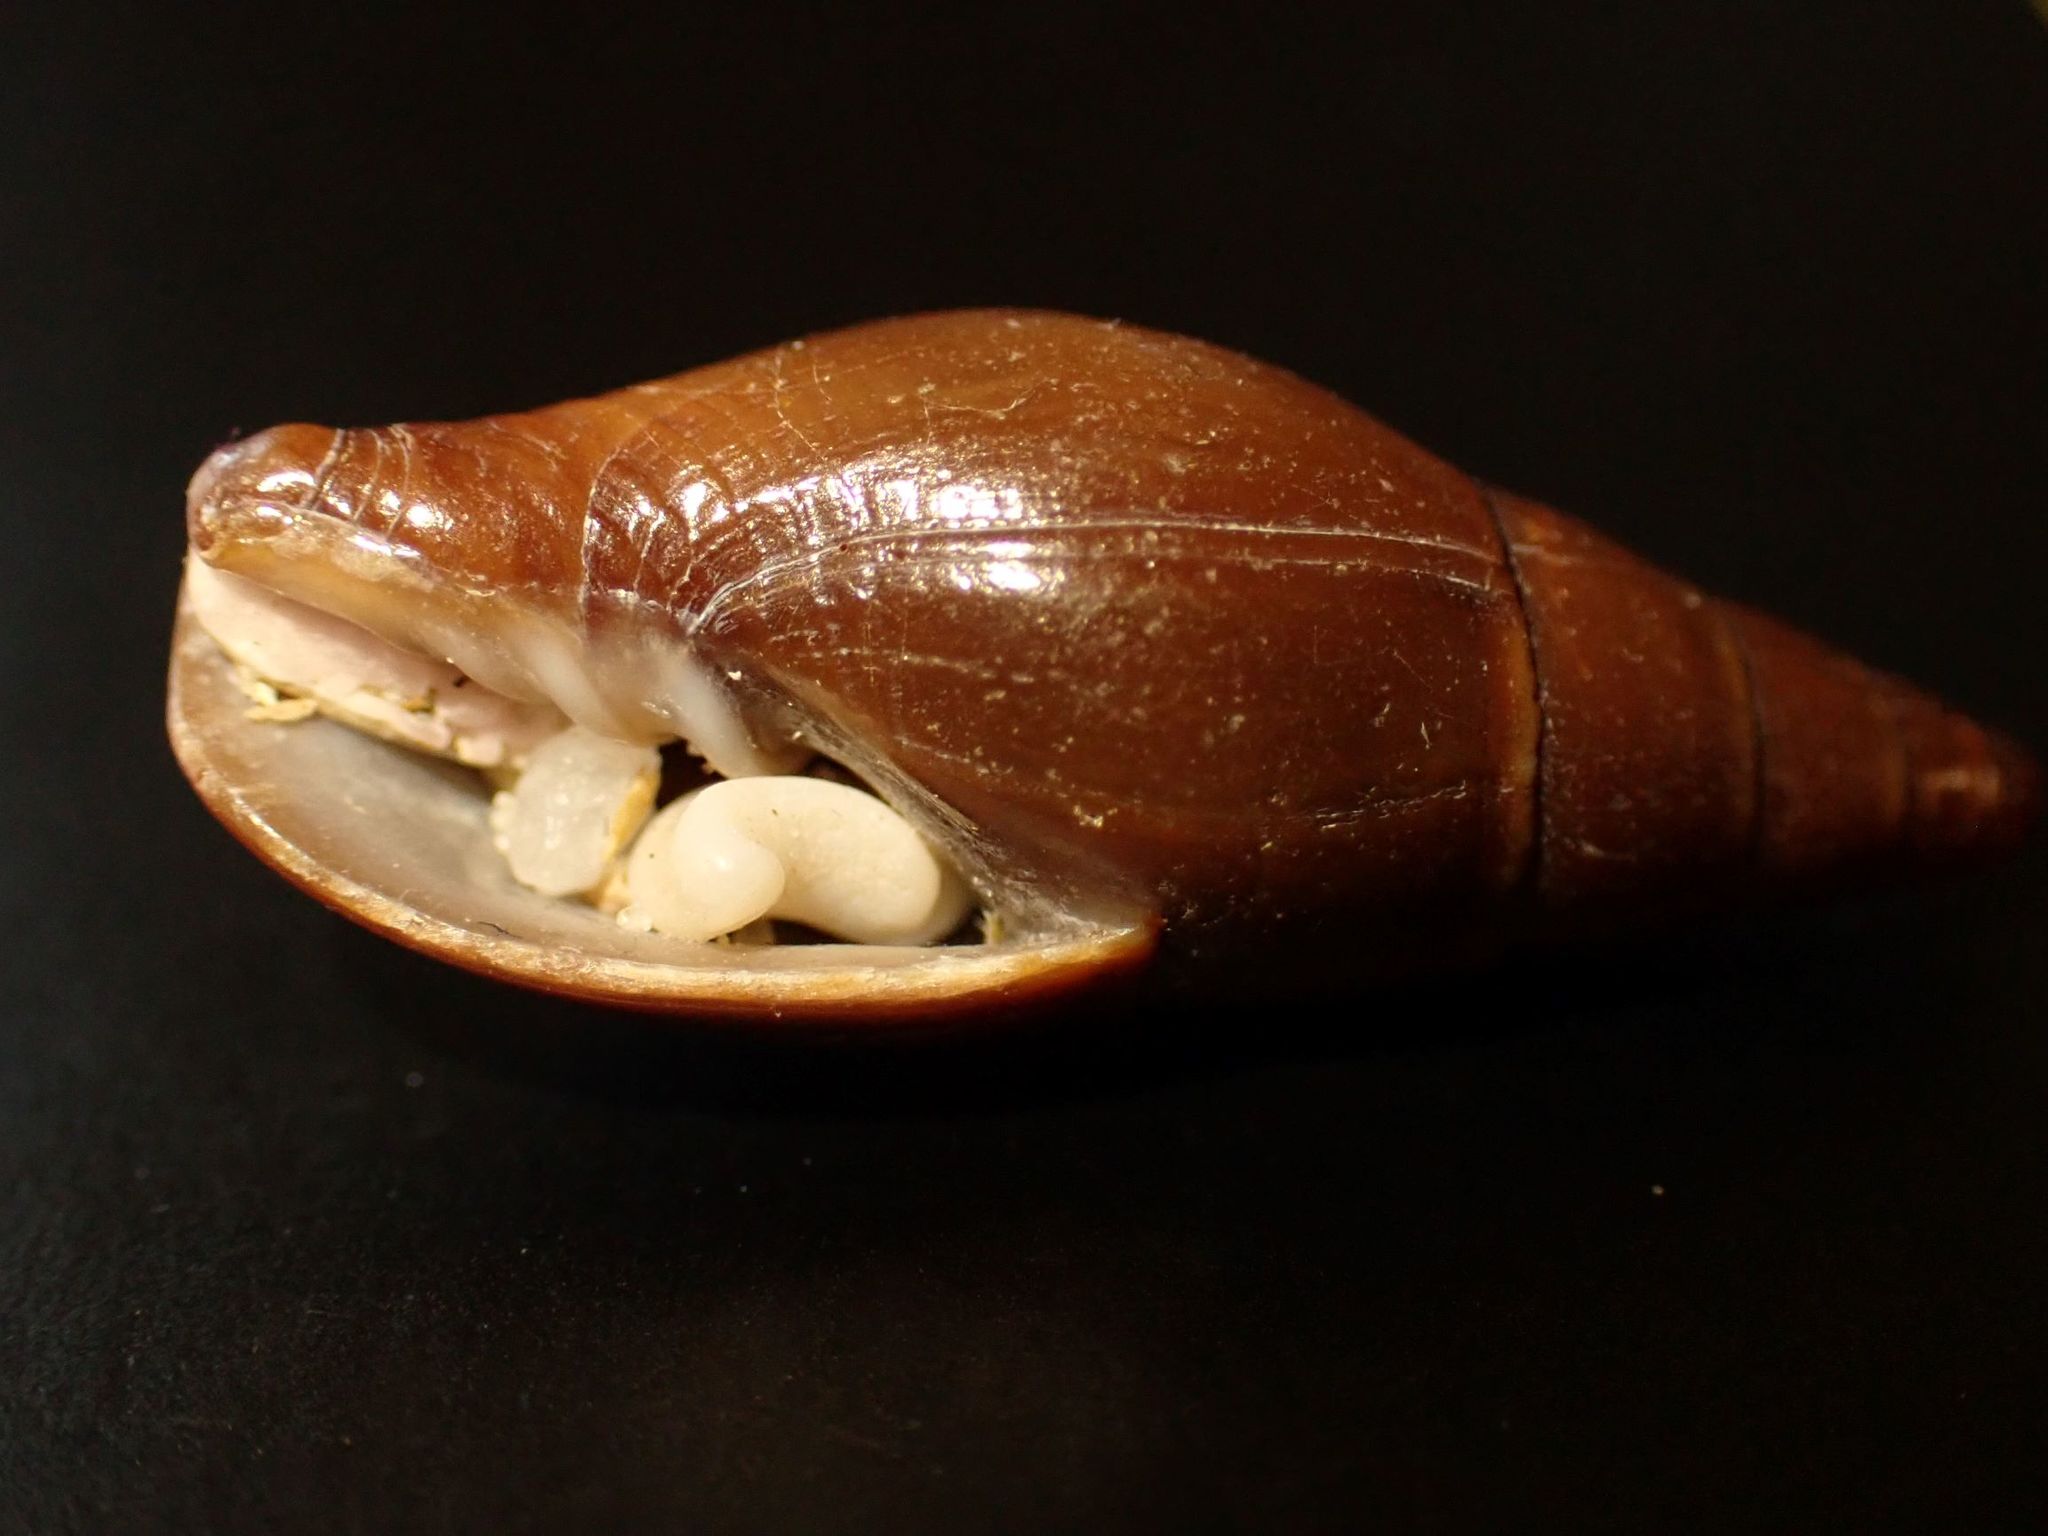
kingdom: Animalia
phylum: Mollusca
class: Gastropoda
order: Neogastropoda
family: Mitridae
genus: Isara
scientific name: Isara carbonaria
